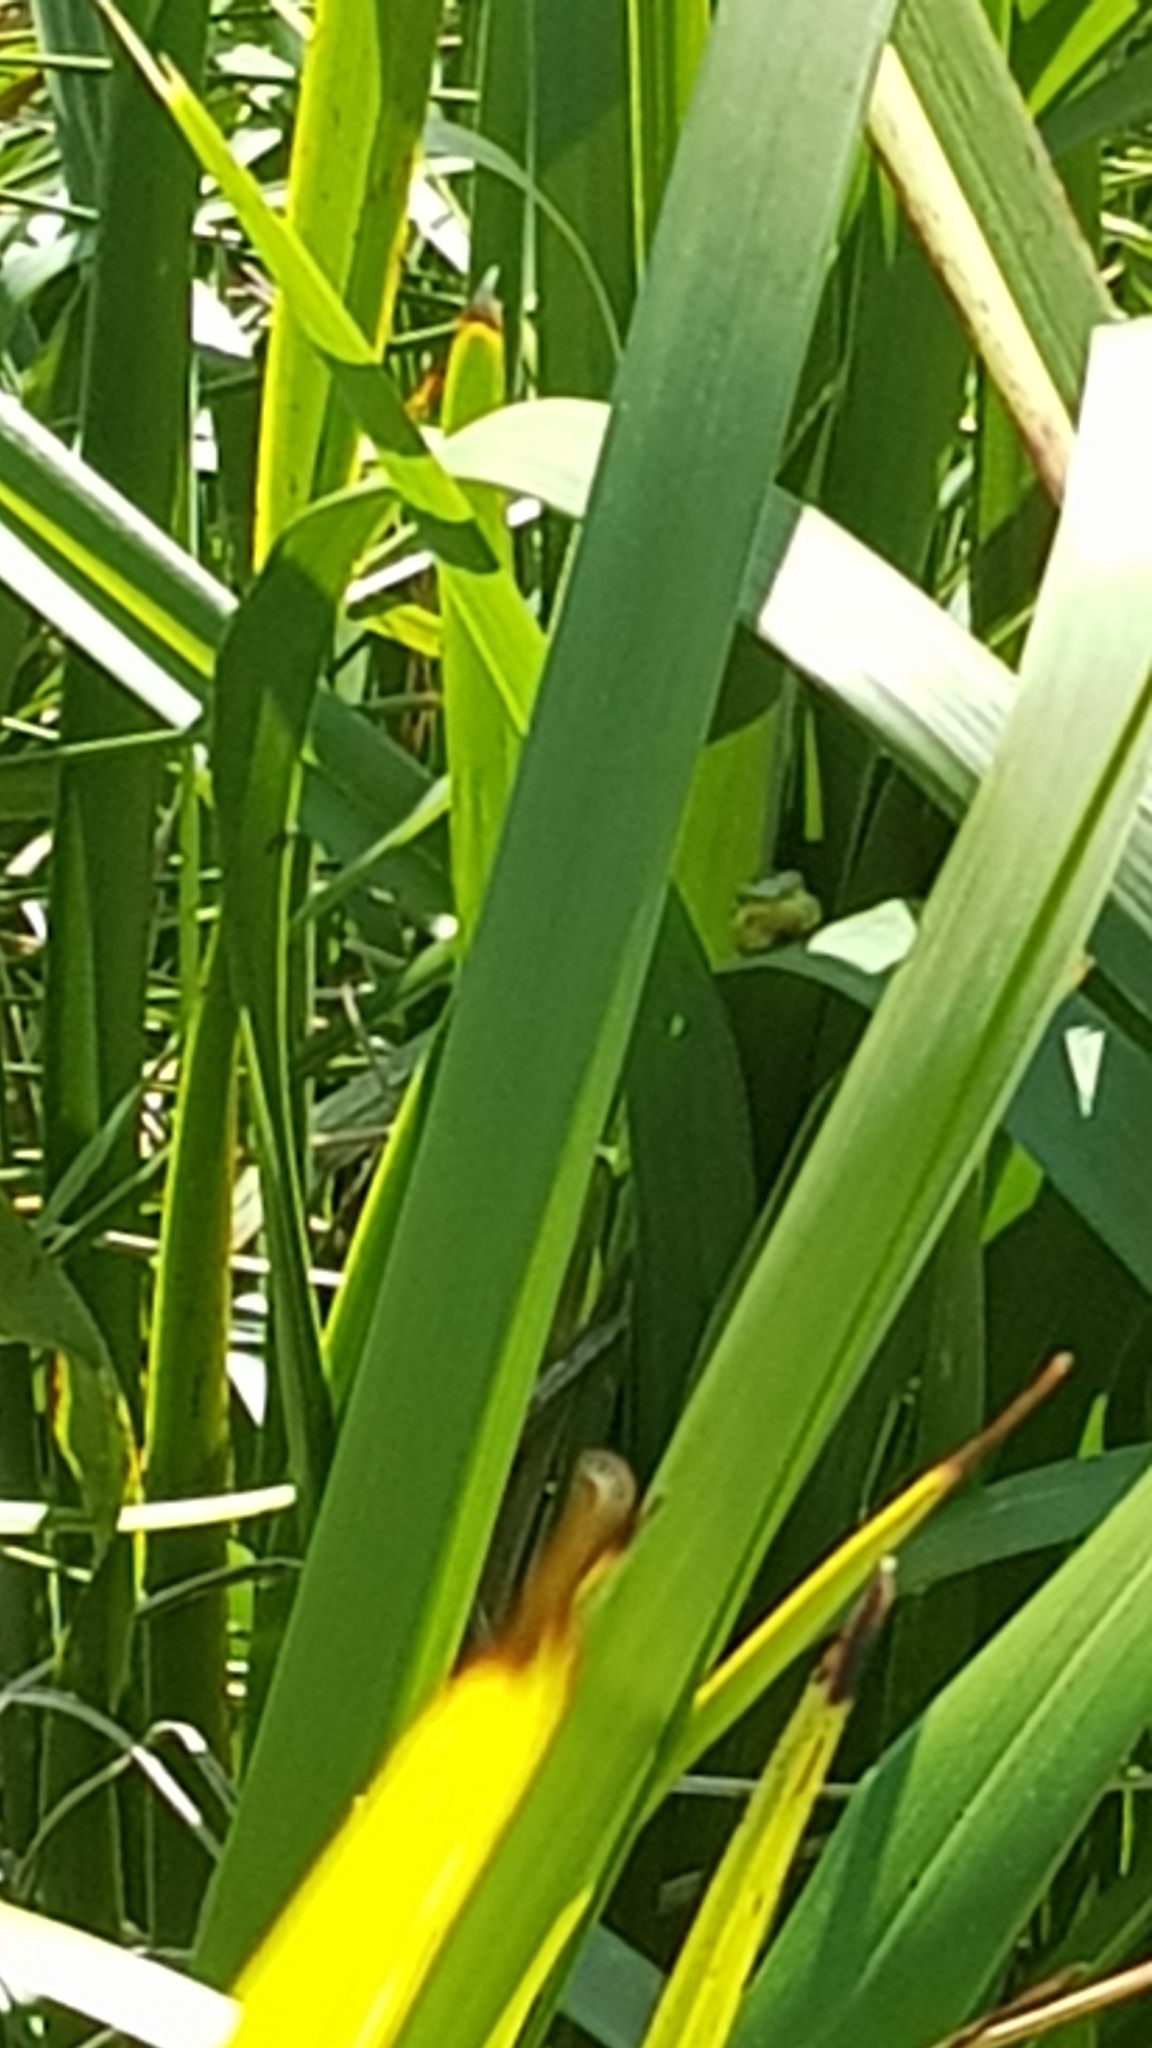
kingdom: Animalia
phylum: Chordata
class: Amphibia
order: Anura
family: Pelodryadidae
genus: Litoria
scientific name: Litoria fallax
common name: Eastern dwarf treefrog
